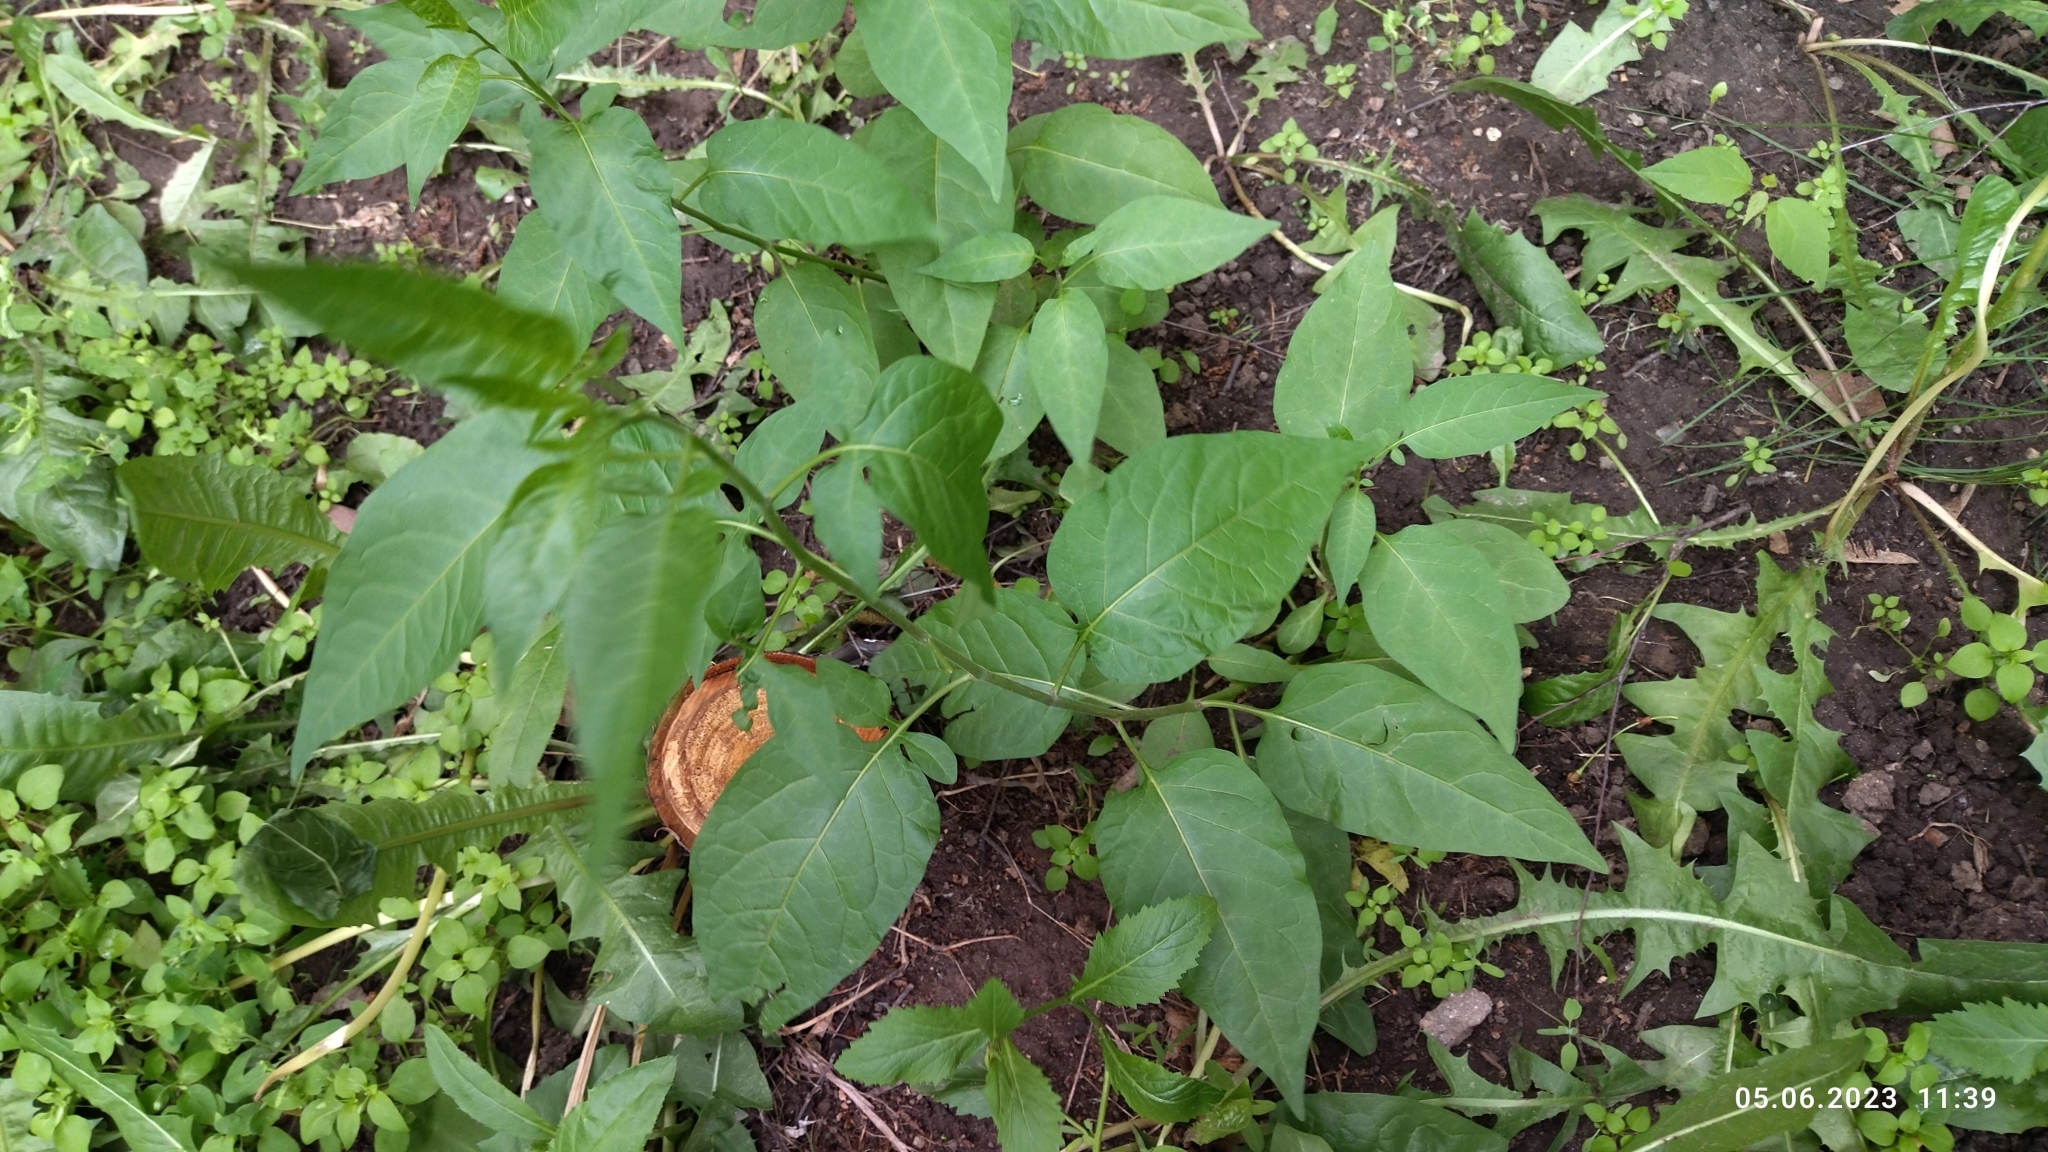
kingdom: Plantae
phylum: Tracheophyta
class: Magnoliopsida
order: Solanales
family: Solanaceae
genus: Solanum
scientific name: Solanum dulcamara
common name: Climbing nightshade
